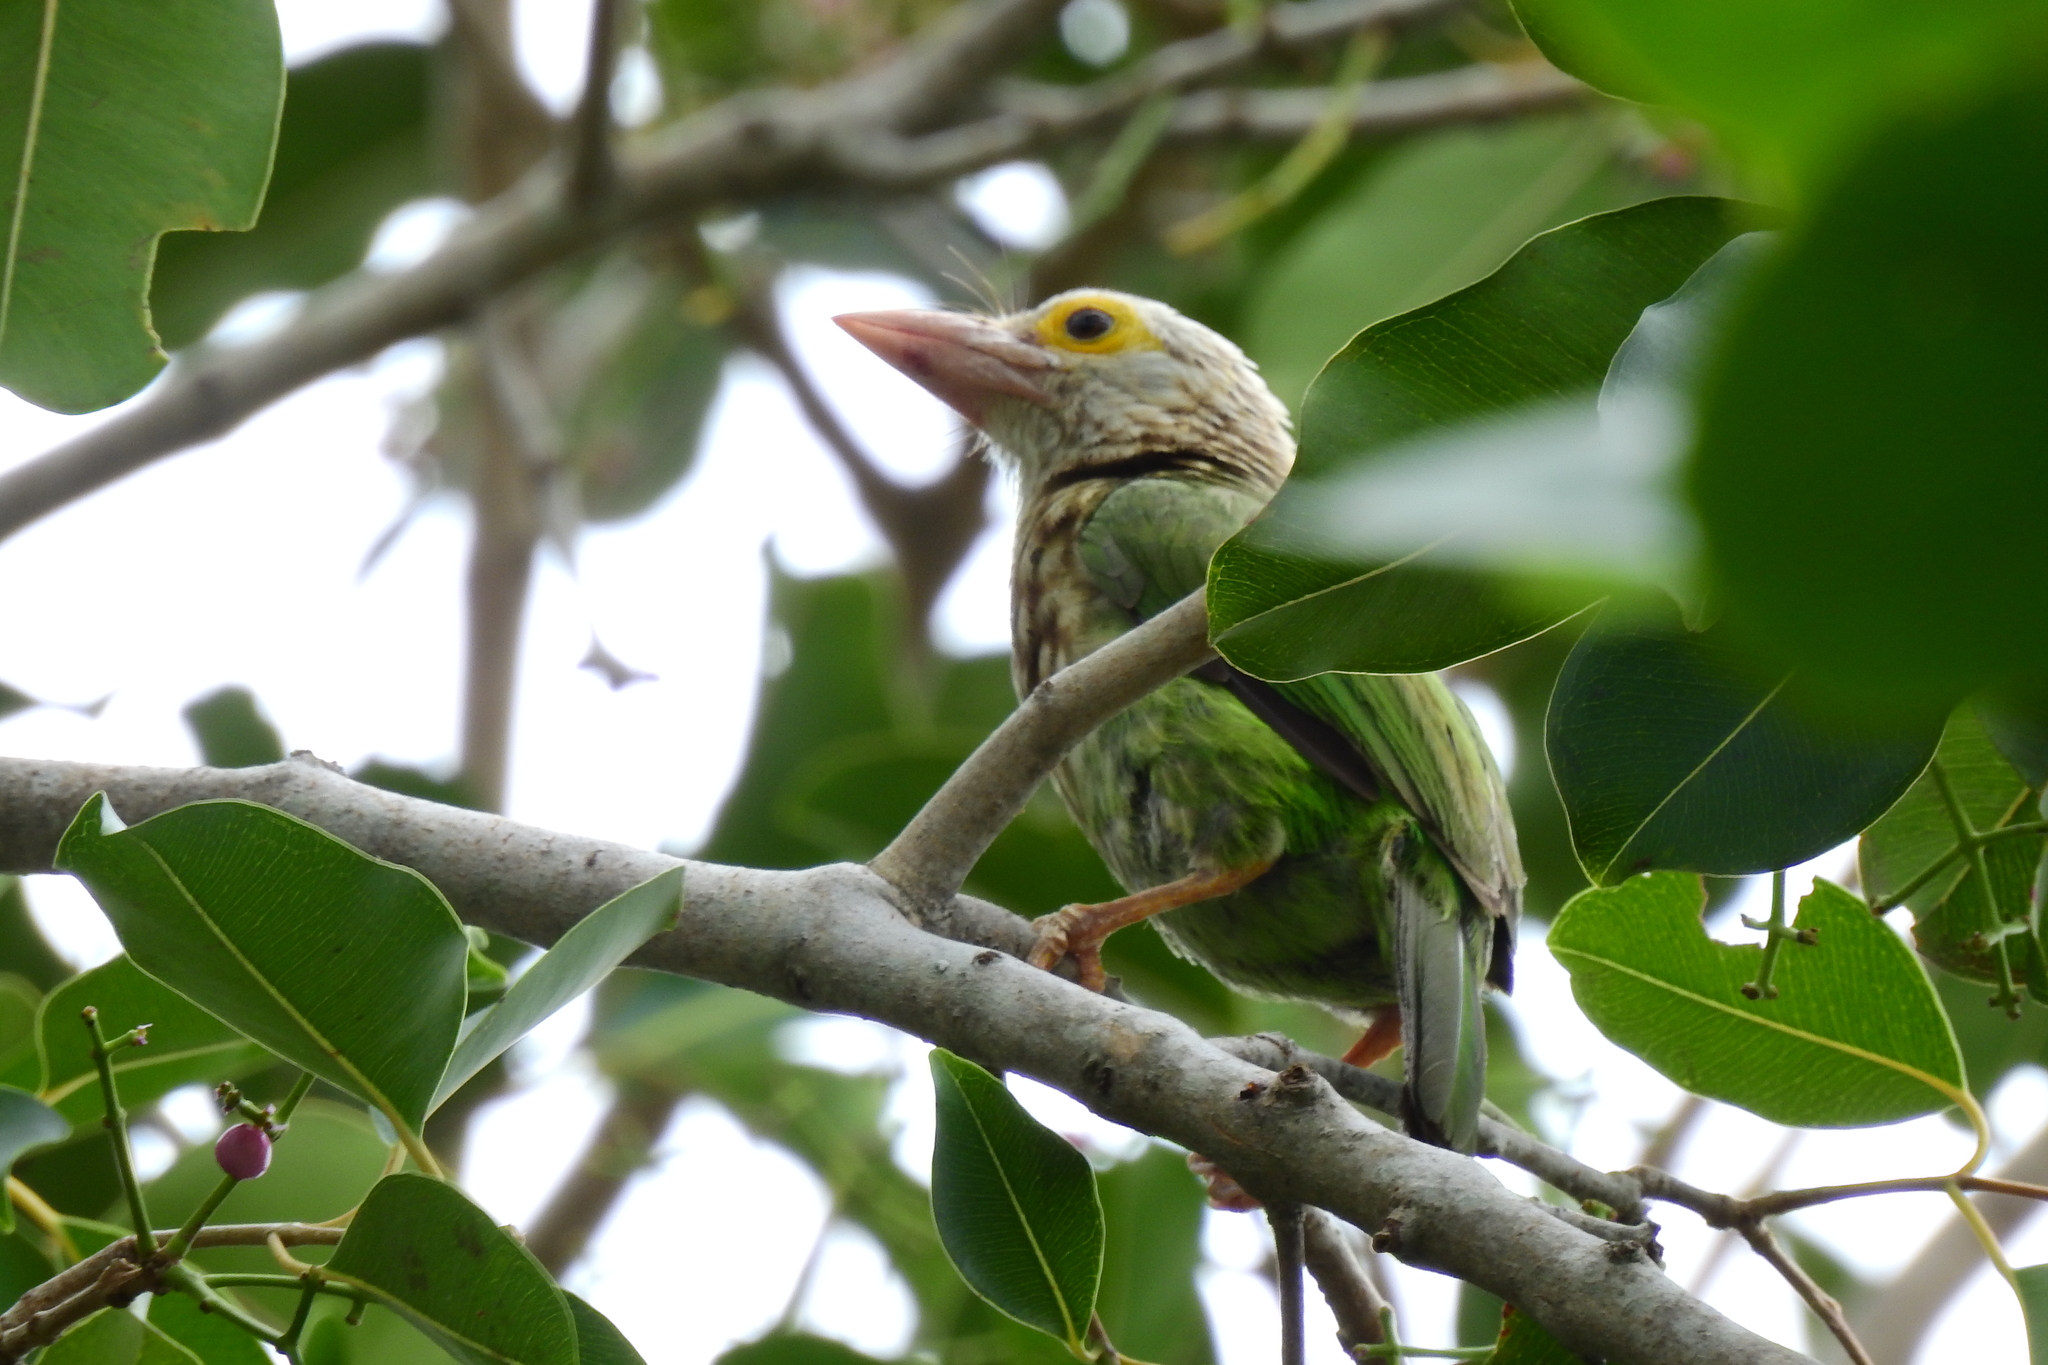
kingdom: Animalia
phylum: Chordata
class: Aves
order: Piciformes
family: Megalaimidae
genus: Psilopogon
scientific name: Psilopogon lineatus
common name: Lineated barbet
